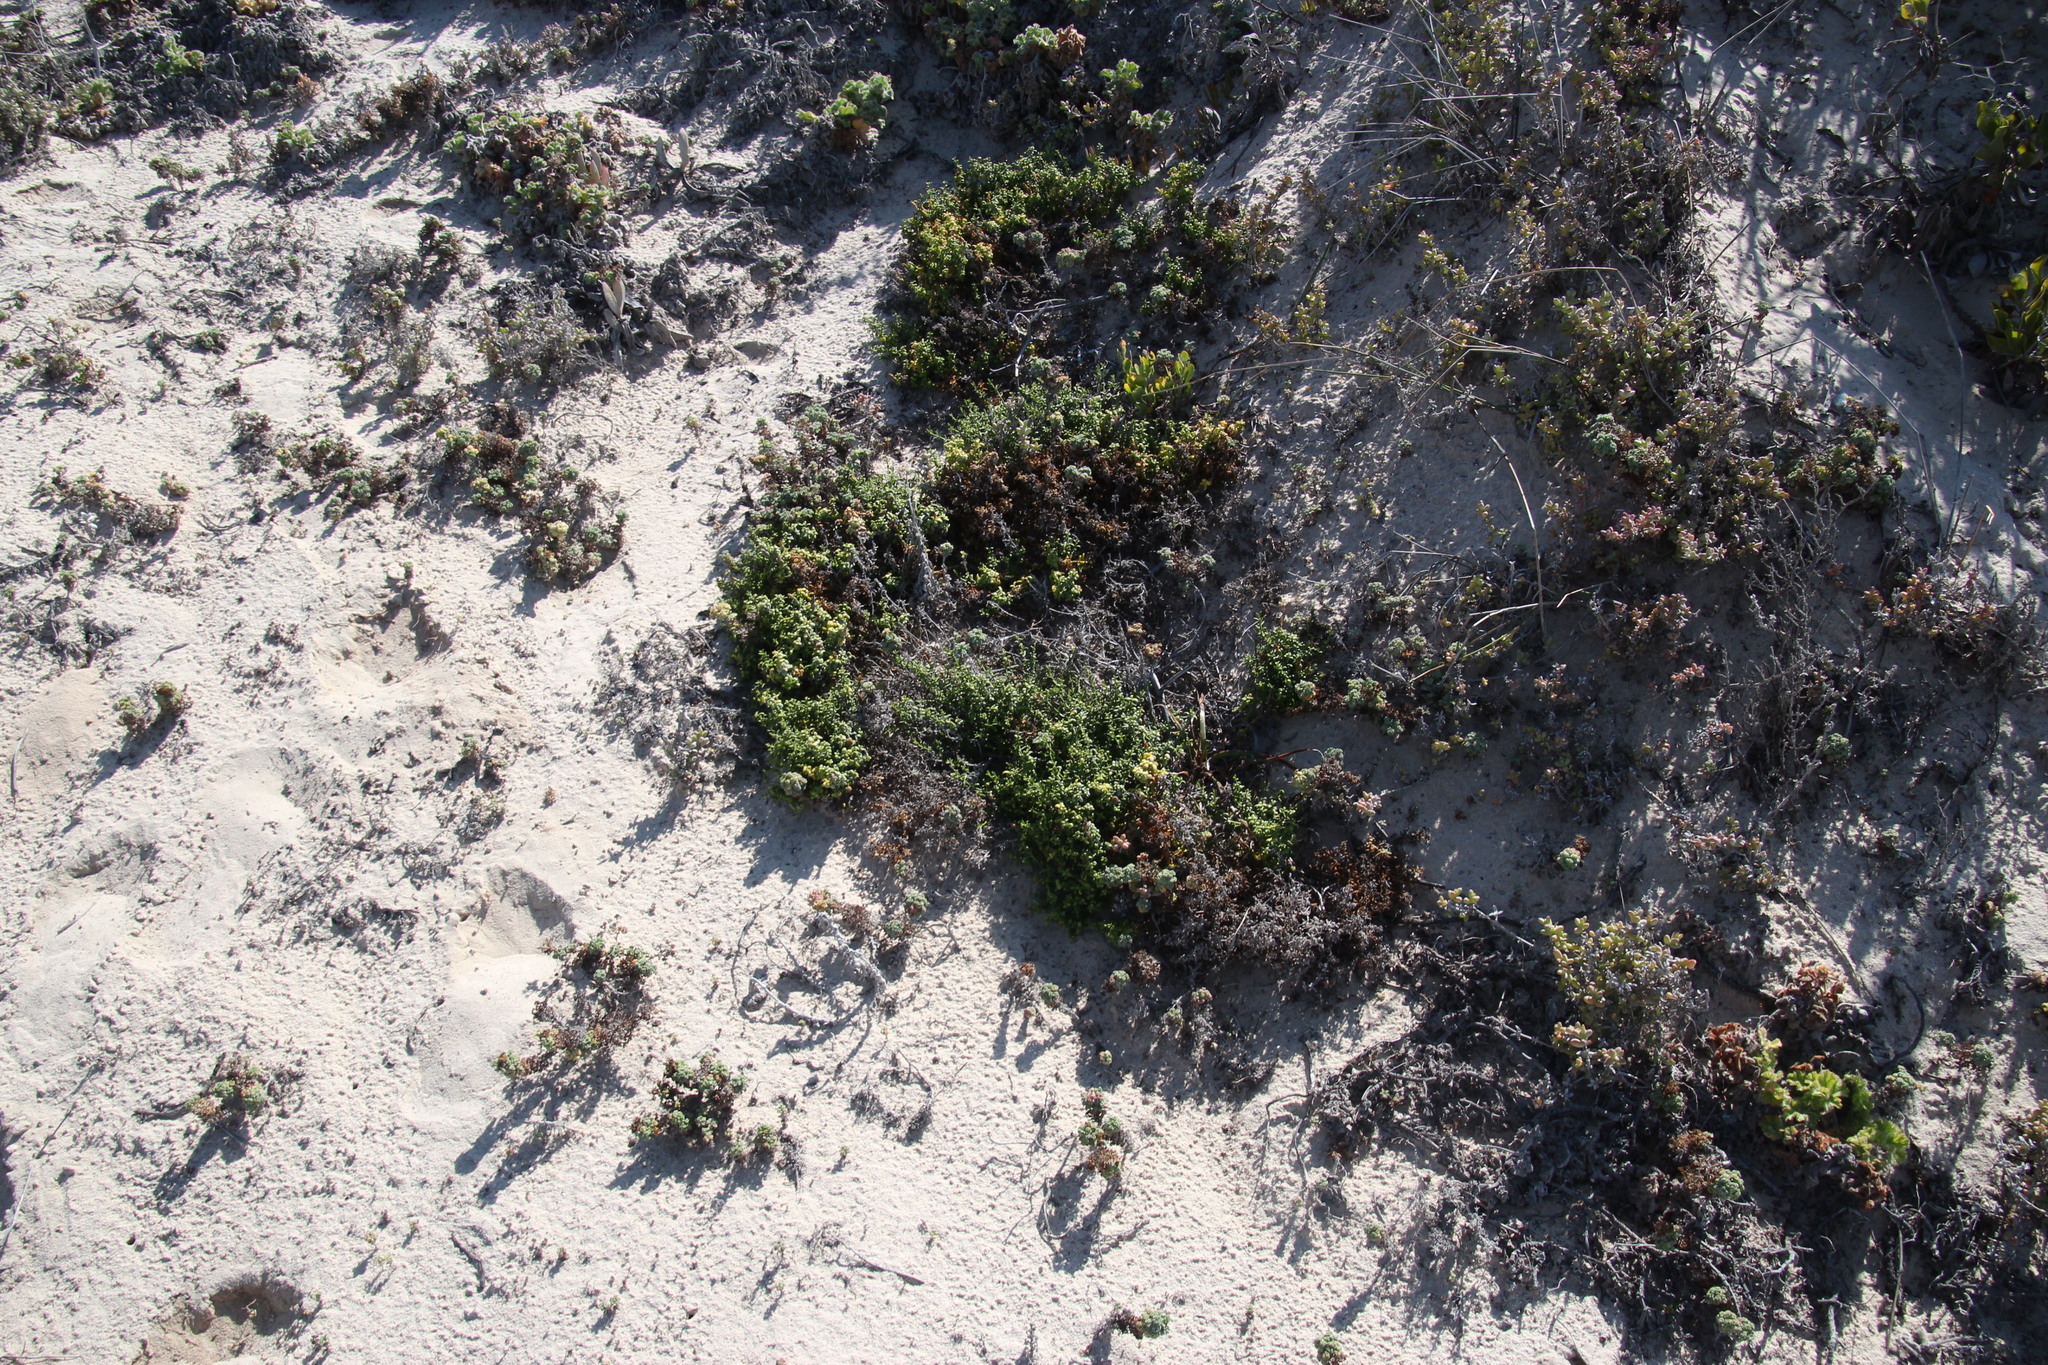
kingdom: Plantae
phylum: Tracheophyta
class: Magnoliopsida
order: Apiales
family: Apiaceae
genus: Dasispermum
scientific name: Dasispermum suffruticosum
